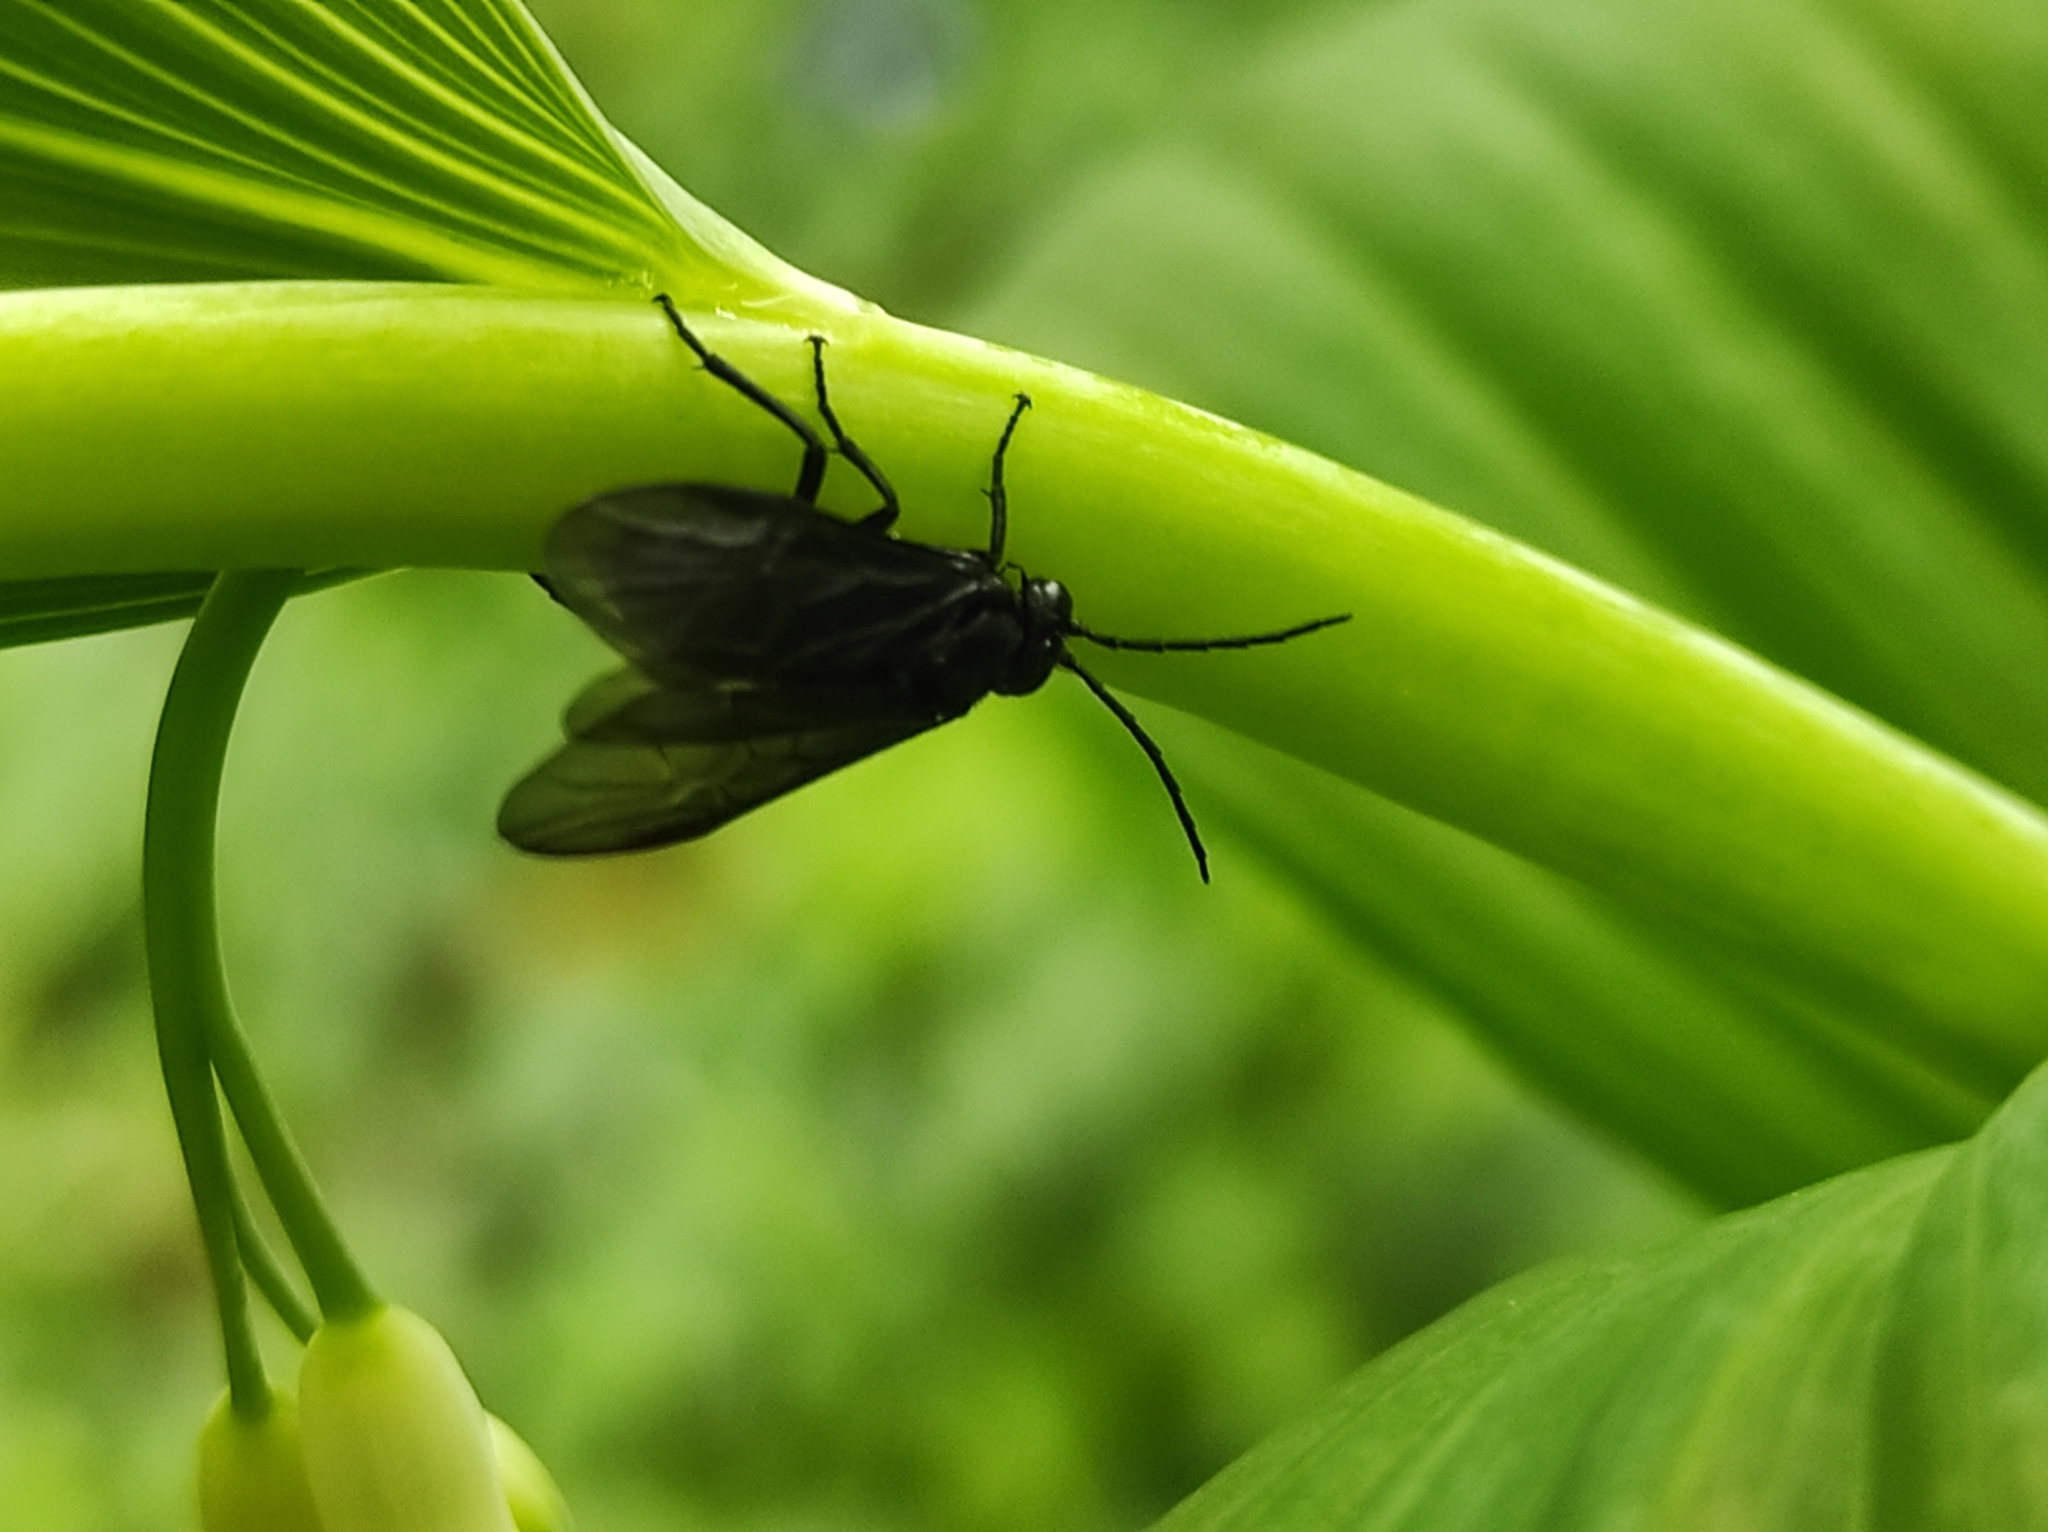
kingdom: Animalia
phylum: Arthropoda
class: Insecta
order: Hymenoptera
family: Tenthredinidae
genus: Phymatocera
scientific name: Phymatocera aterrima
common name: Solomon's-seal sawfly
